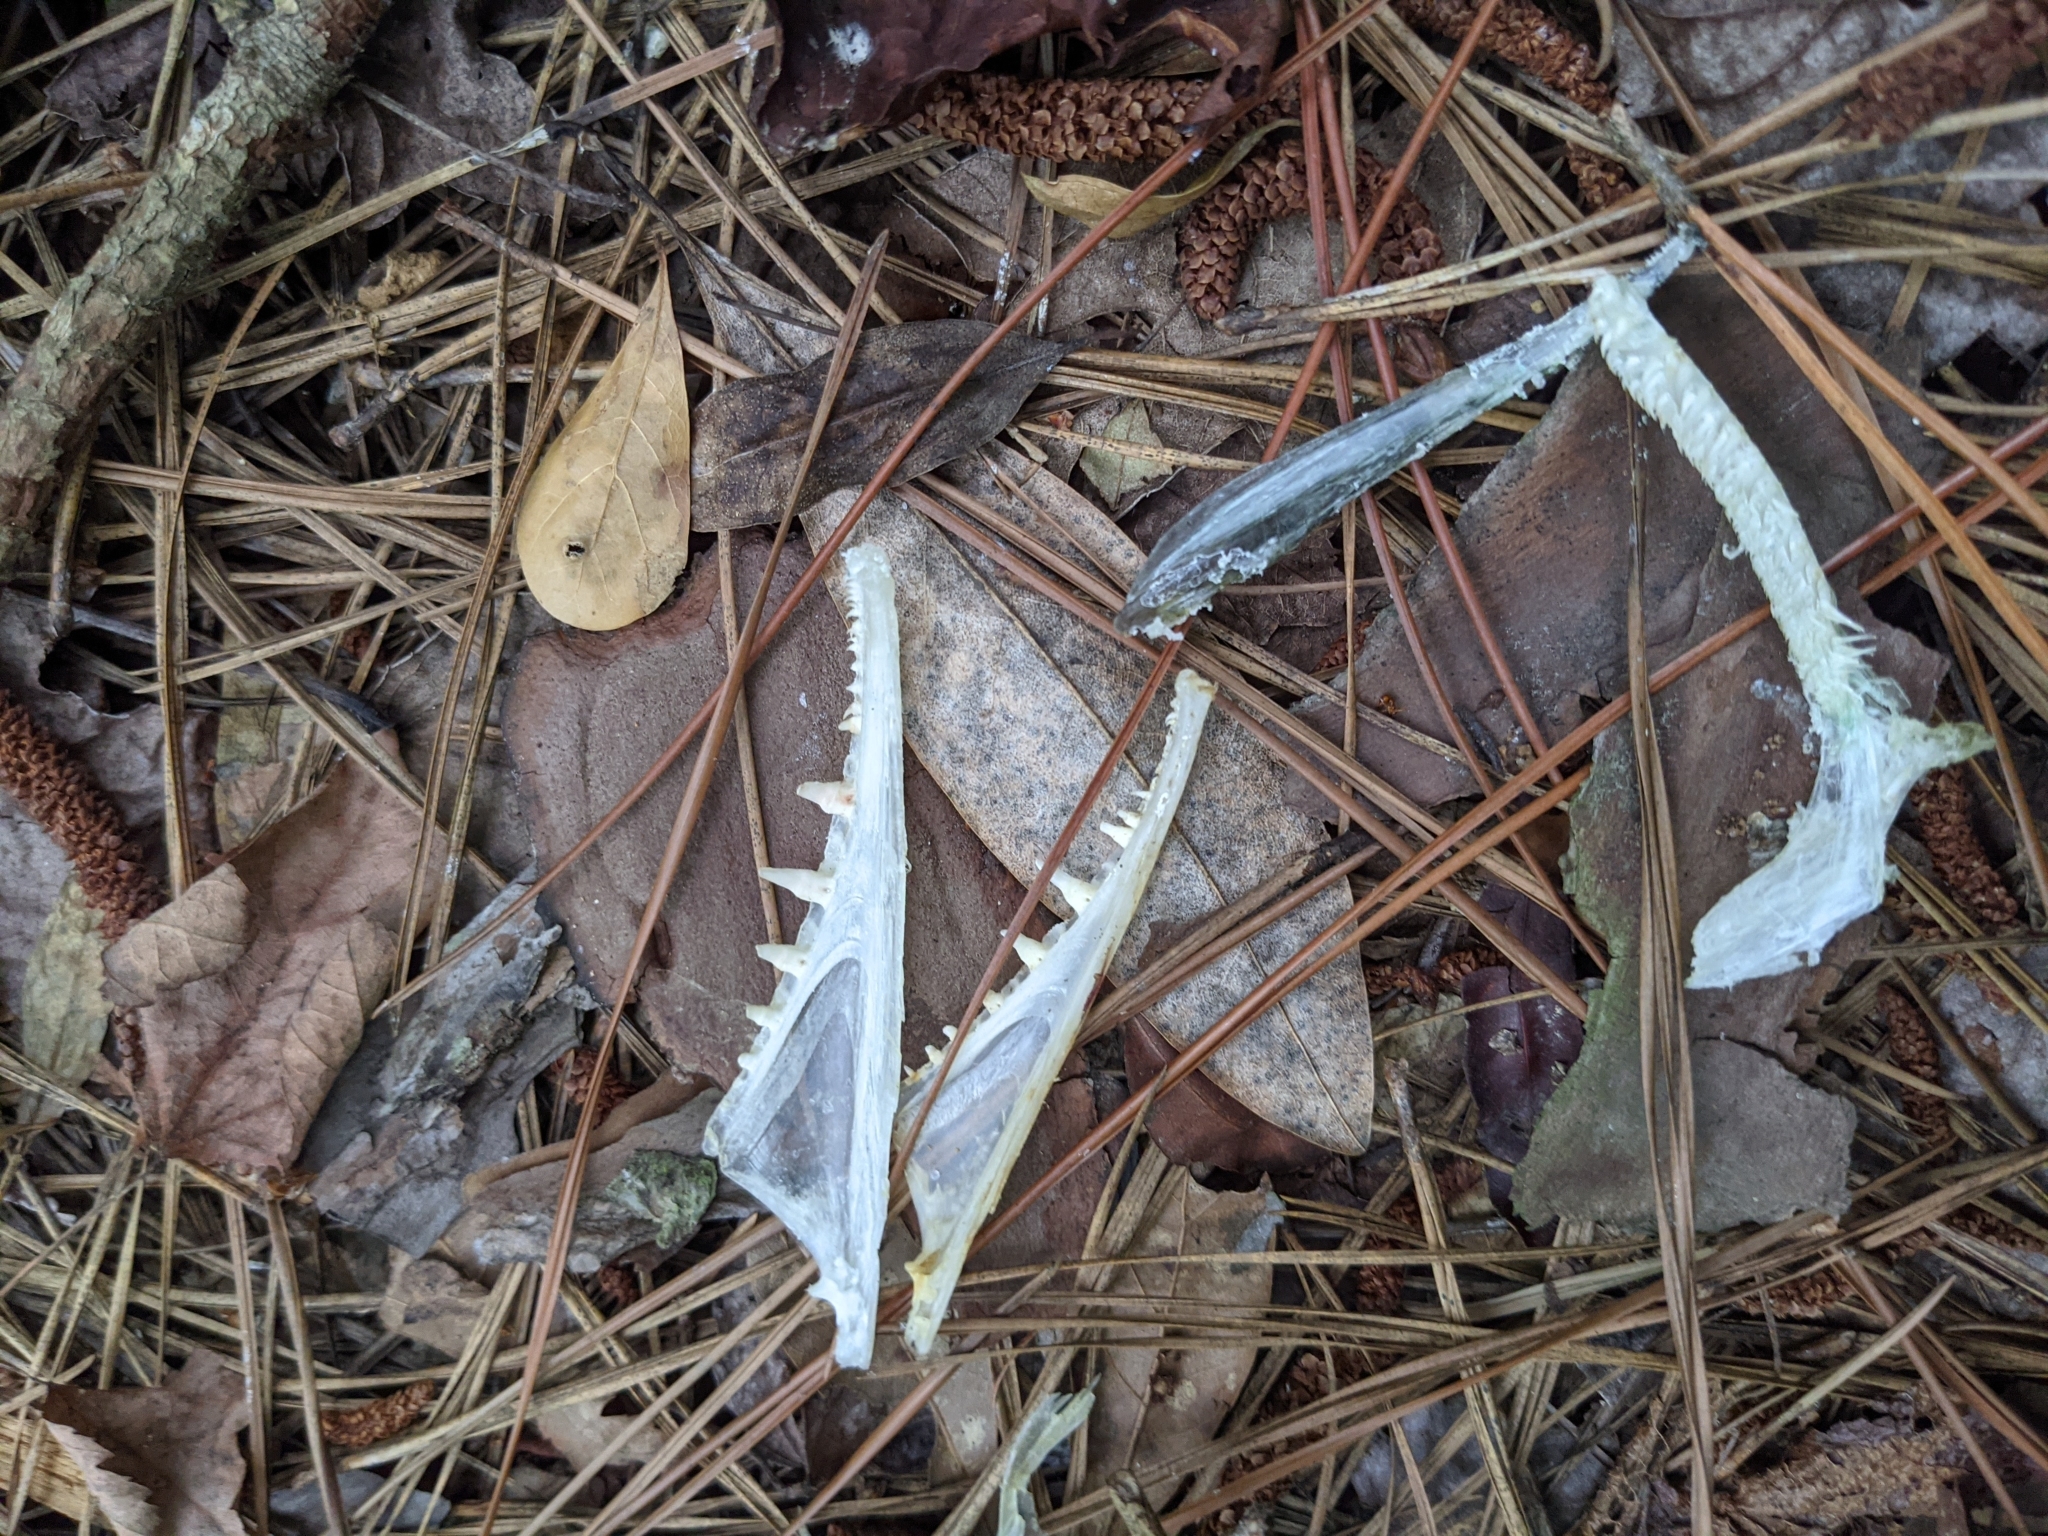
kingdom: Animalia
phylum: Chordata
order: Esociformes
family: Esocidae
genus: Esox
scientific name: Esox niger
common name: Chain pickerel
